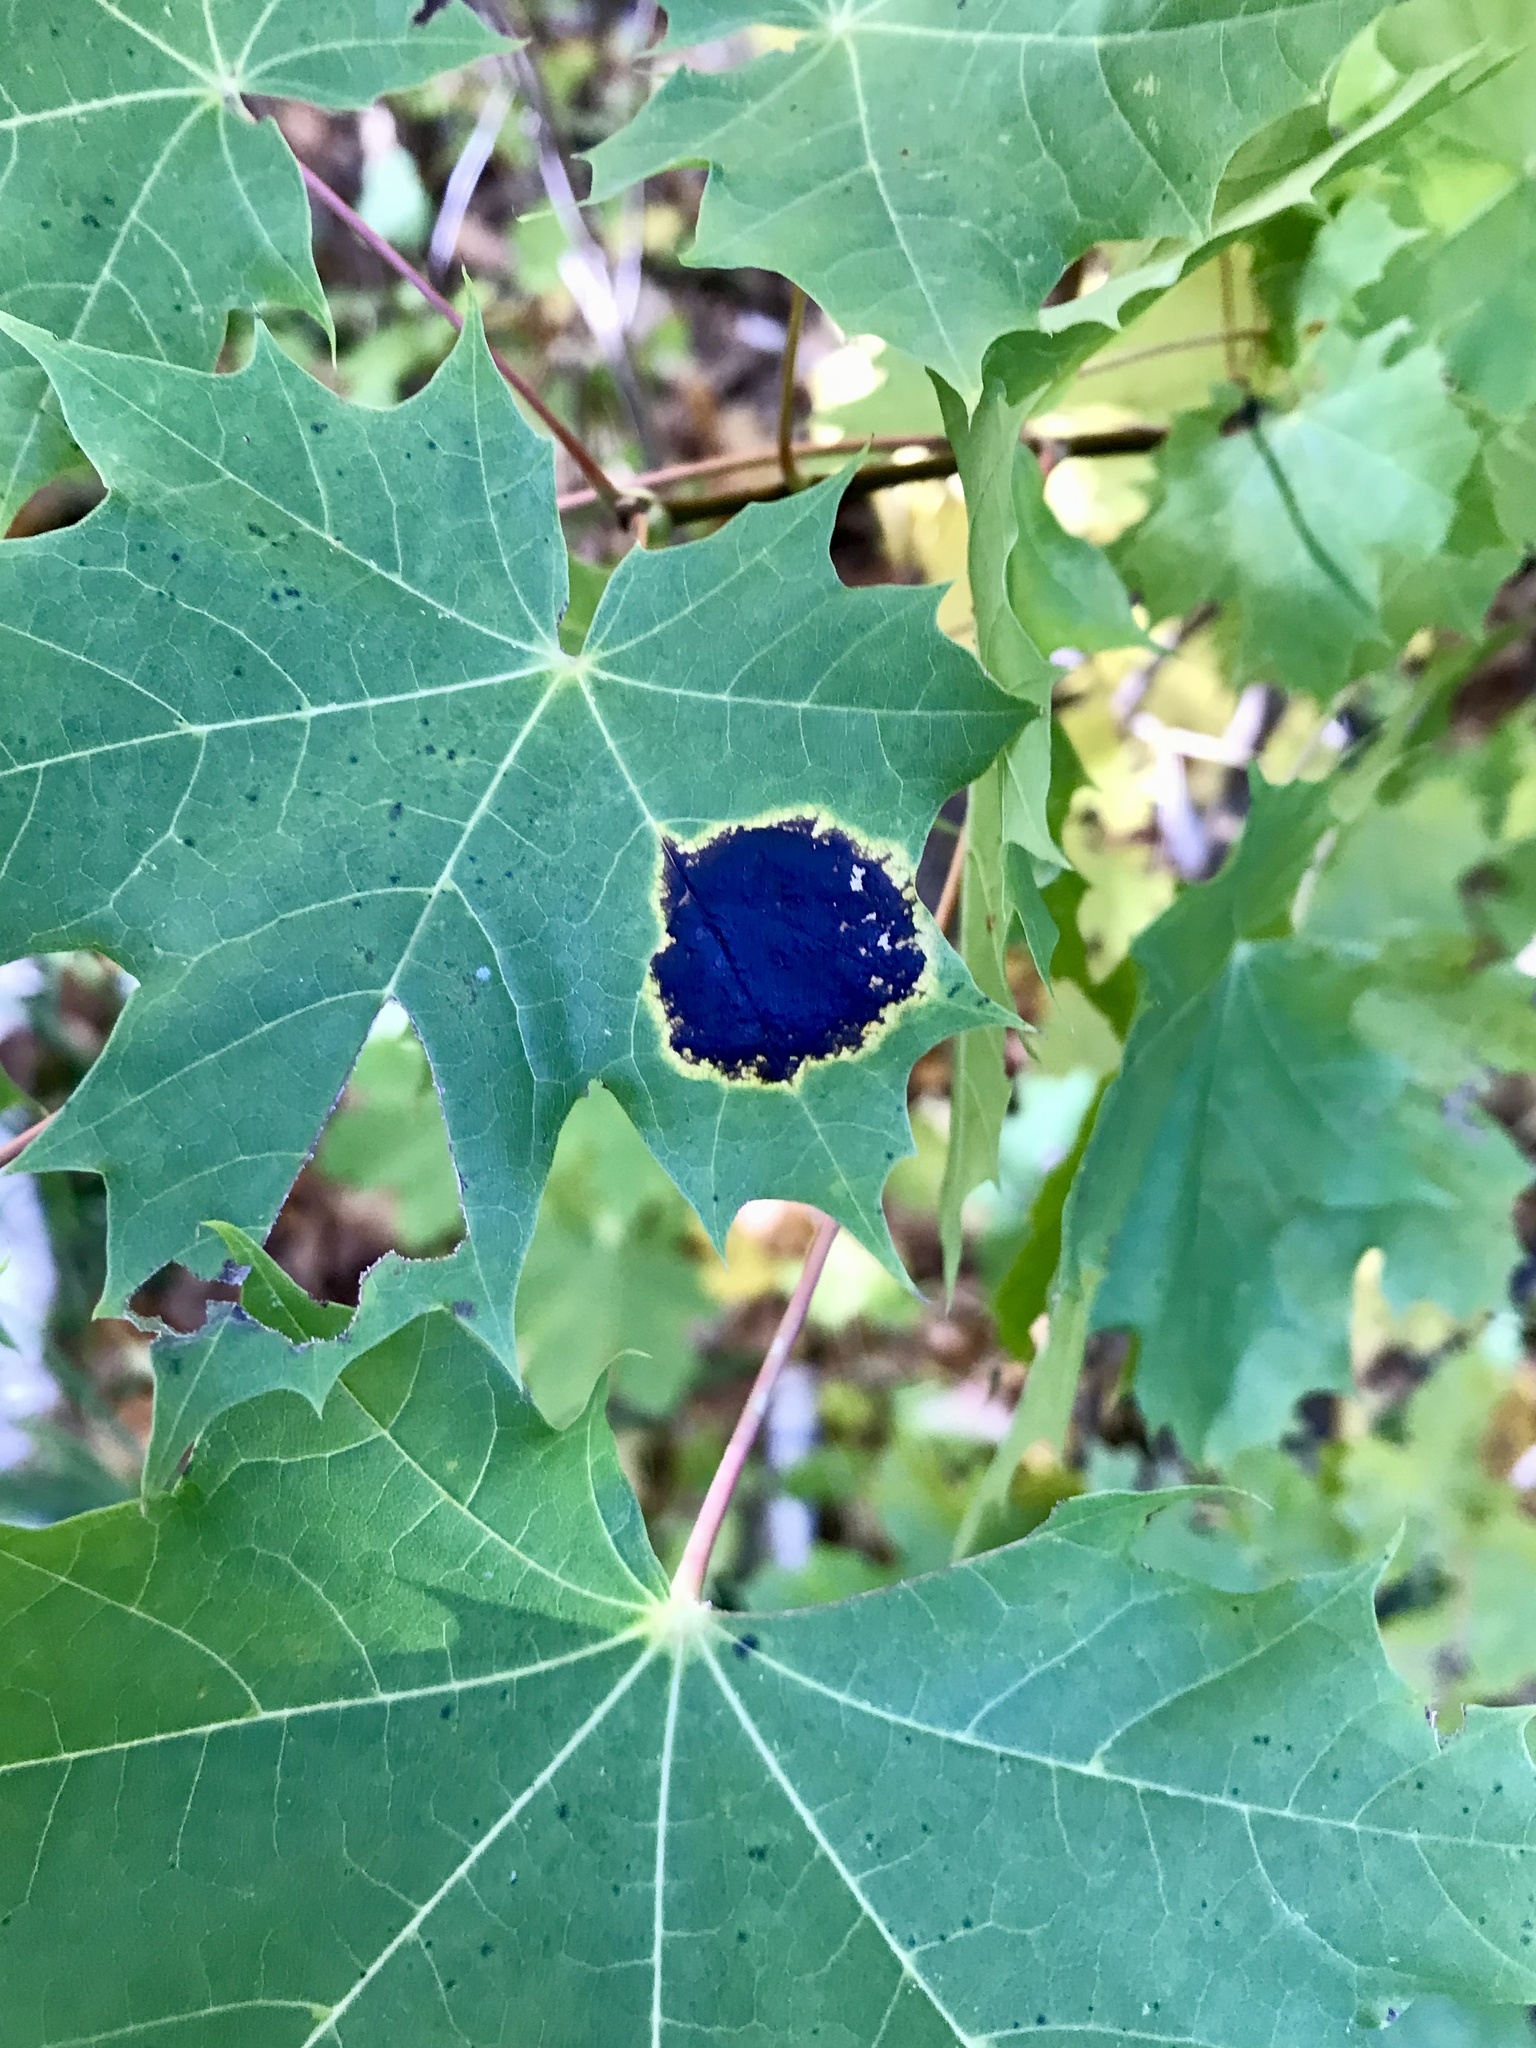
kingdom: Fungi
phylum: Ascomycota
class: Leotiomycetes
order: Rhytismatales
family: Rhytismataceae
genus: Rhytisma
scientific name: Rhytisma acerinum
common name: European tar spot
